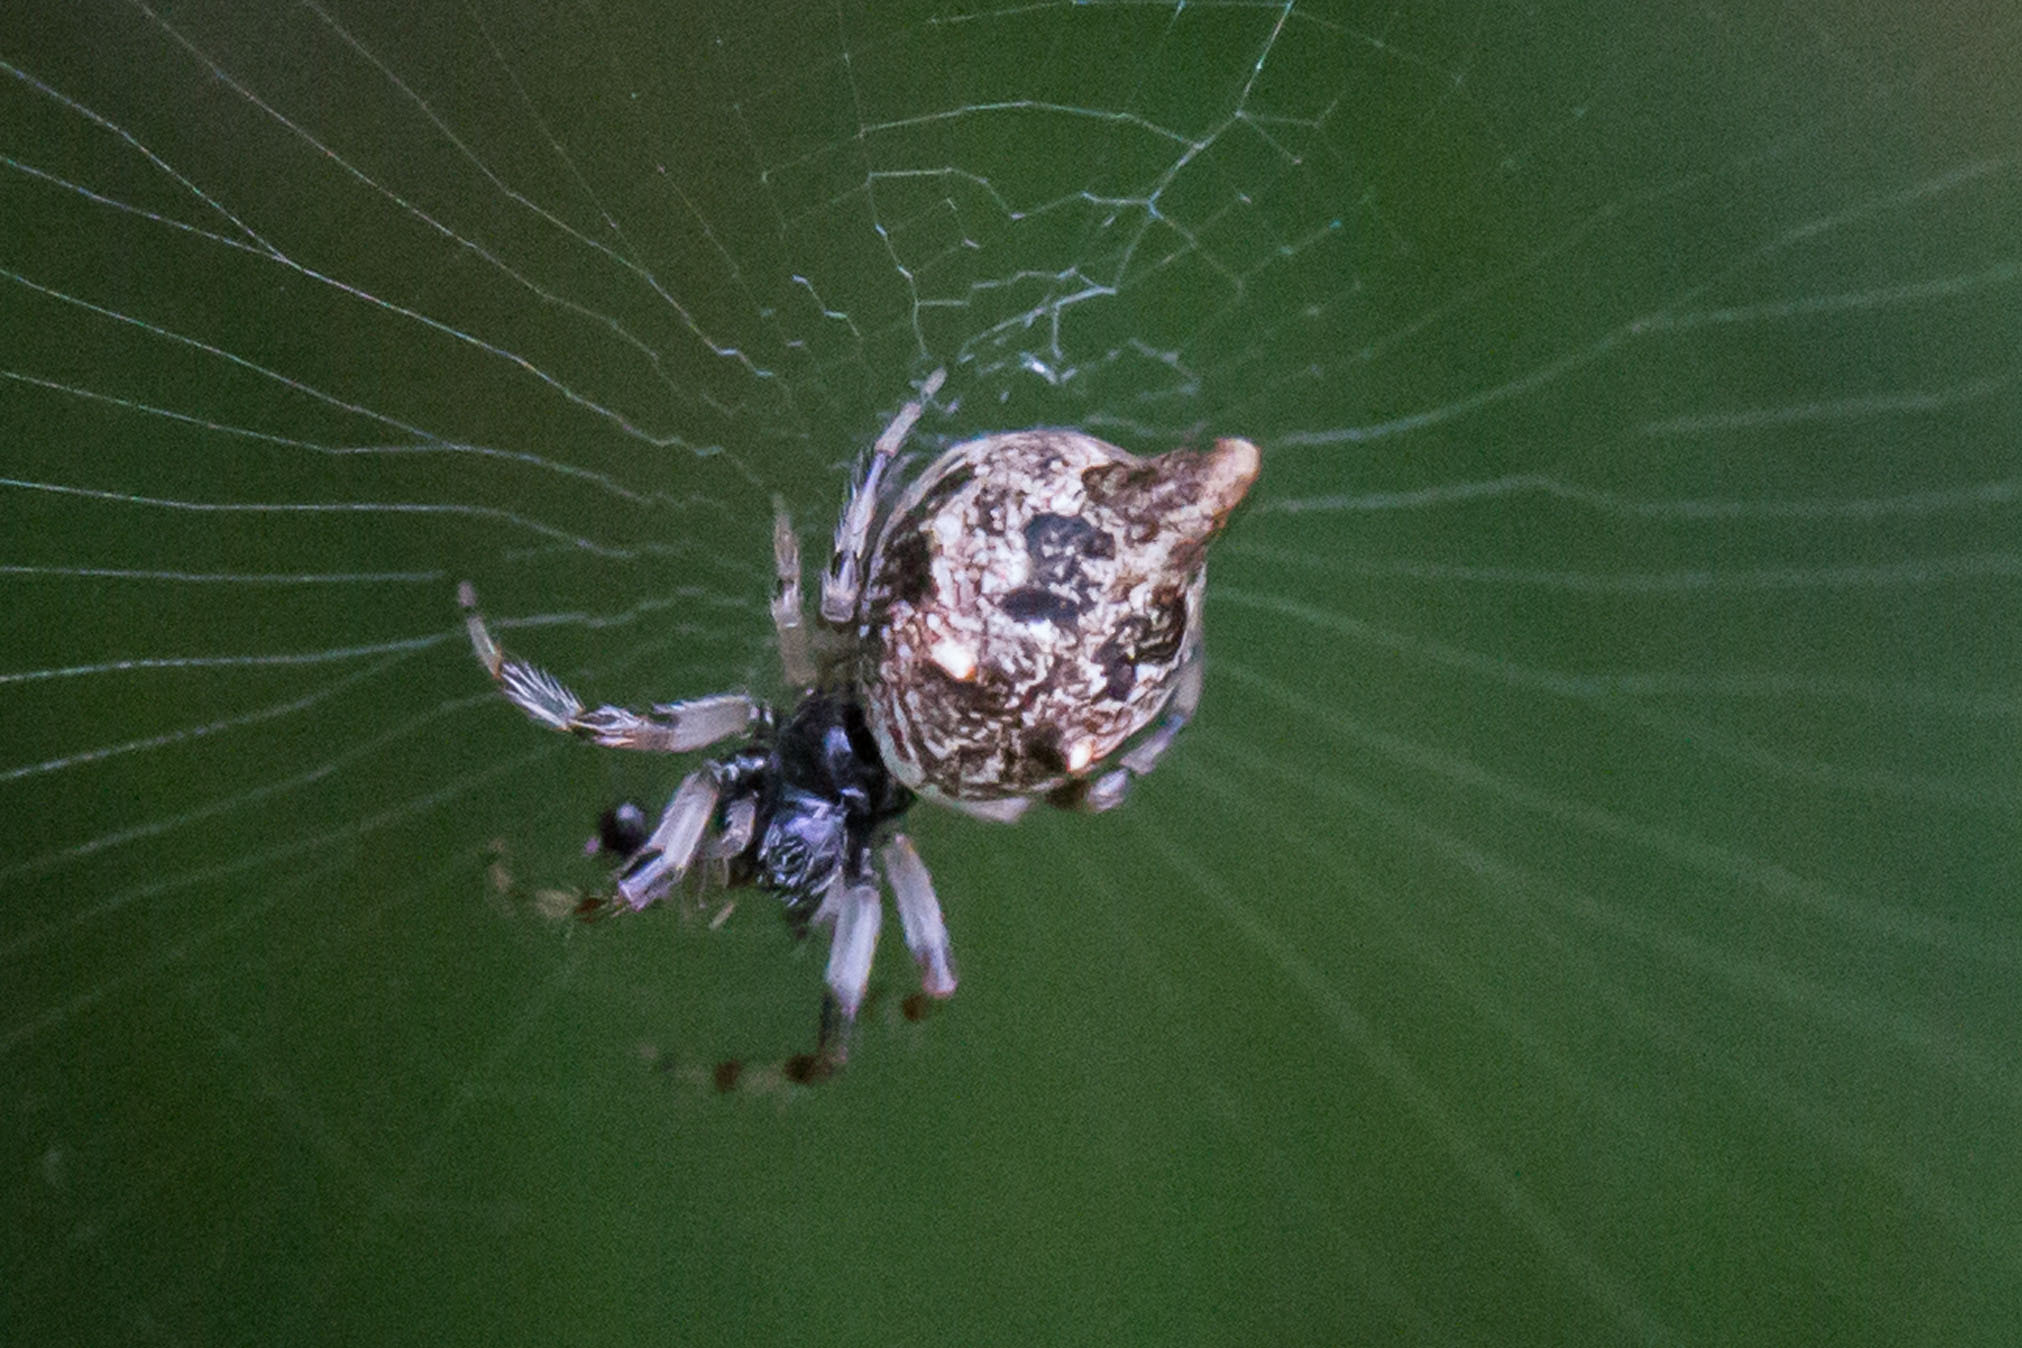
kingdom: Animalia
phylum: Arthropoda
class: Arachnida
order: Araneae
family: Araneidae
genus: Cyclosa
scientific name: Cyclosa turbinata
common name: Orb weavers
